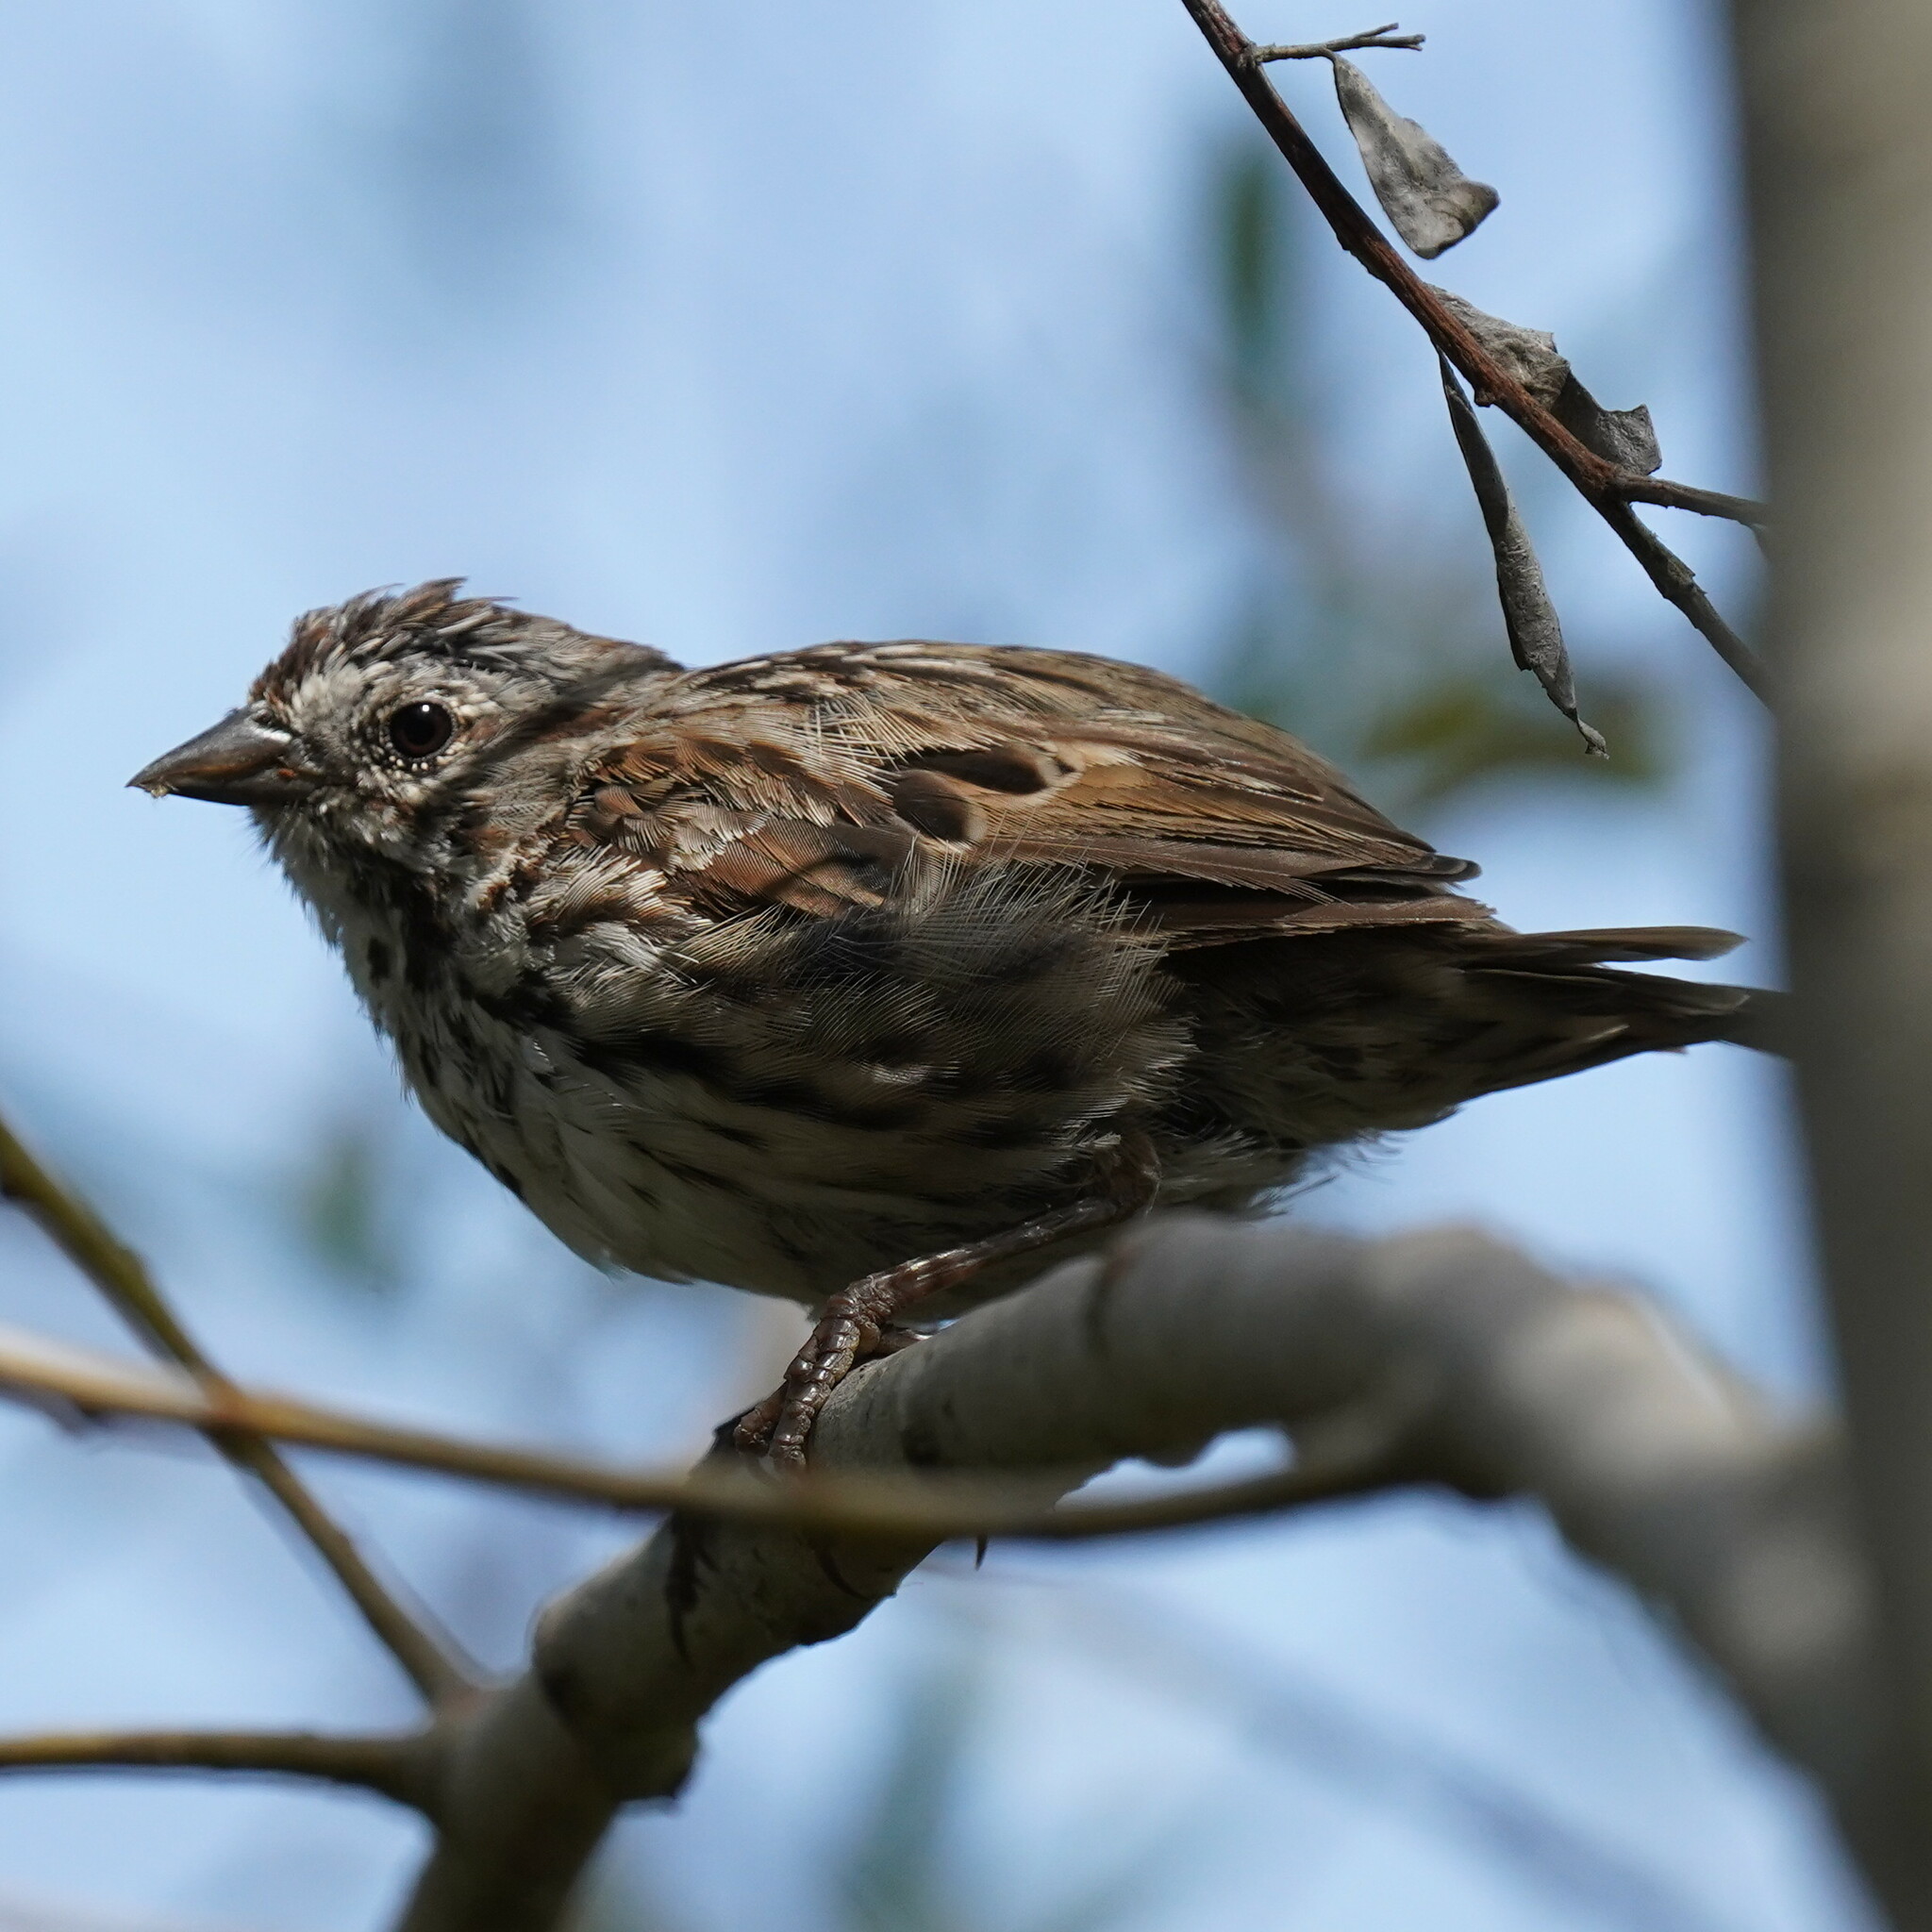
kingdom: Animalia
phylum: Chordata
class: Aves
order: Passeriformes
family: Passerellidae
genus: Melospiza
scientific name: Melospiza melodia
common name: Song sparrow
